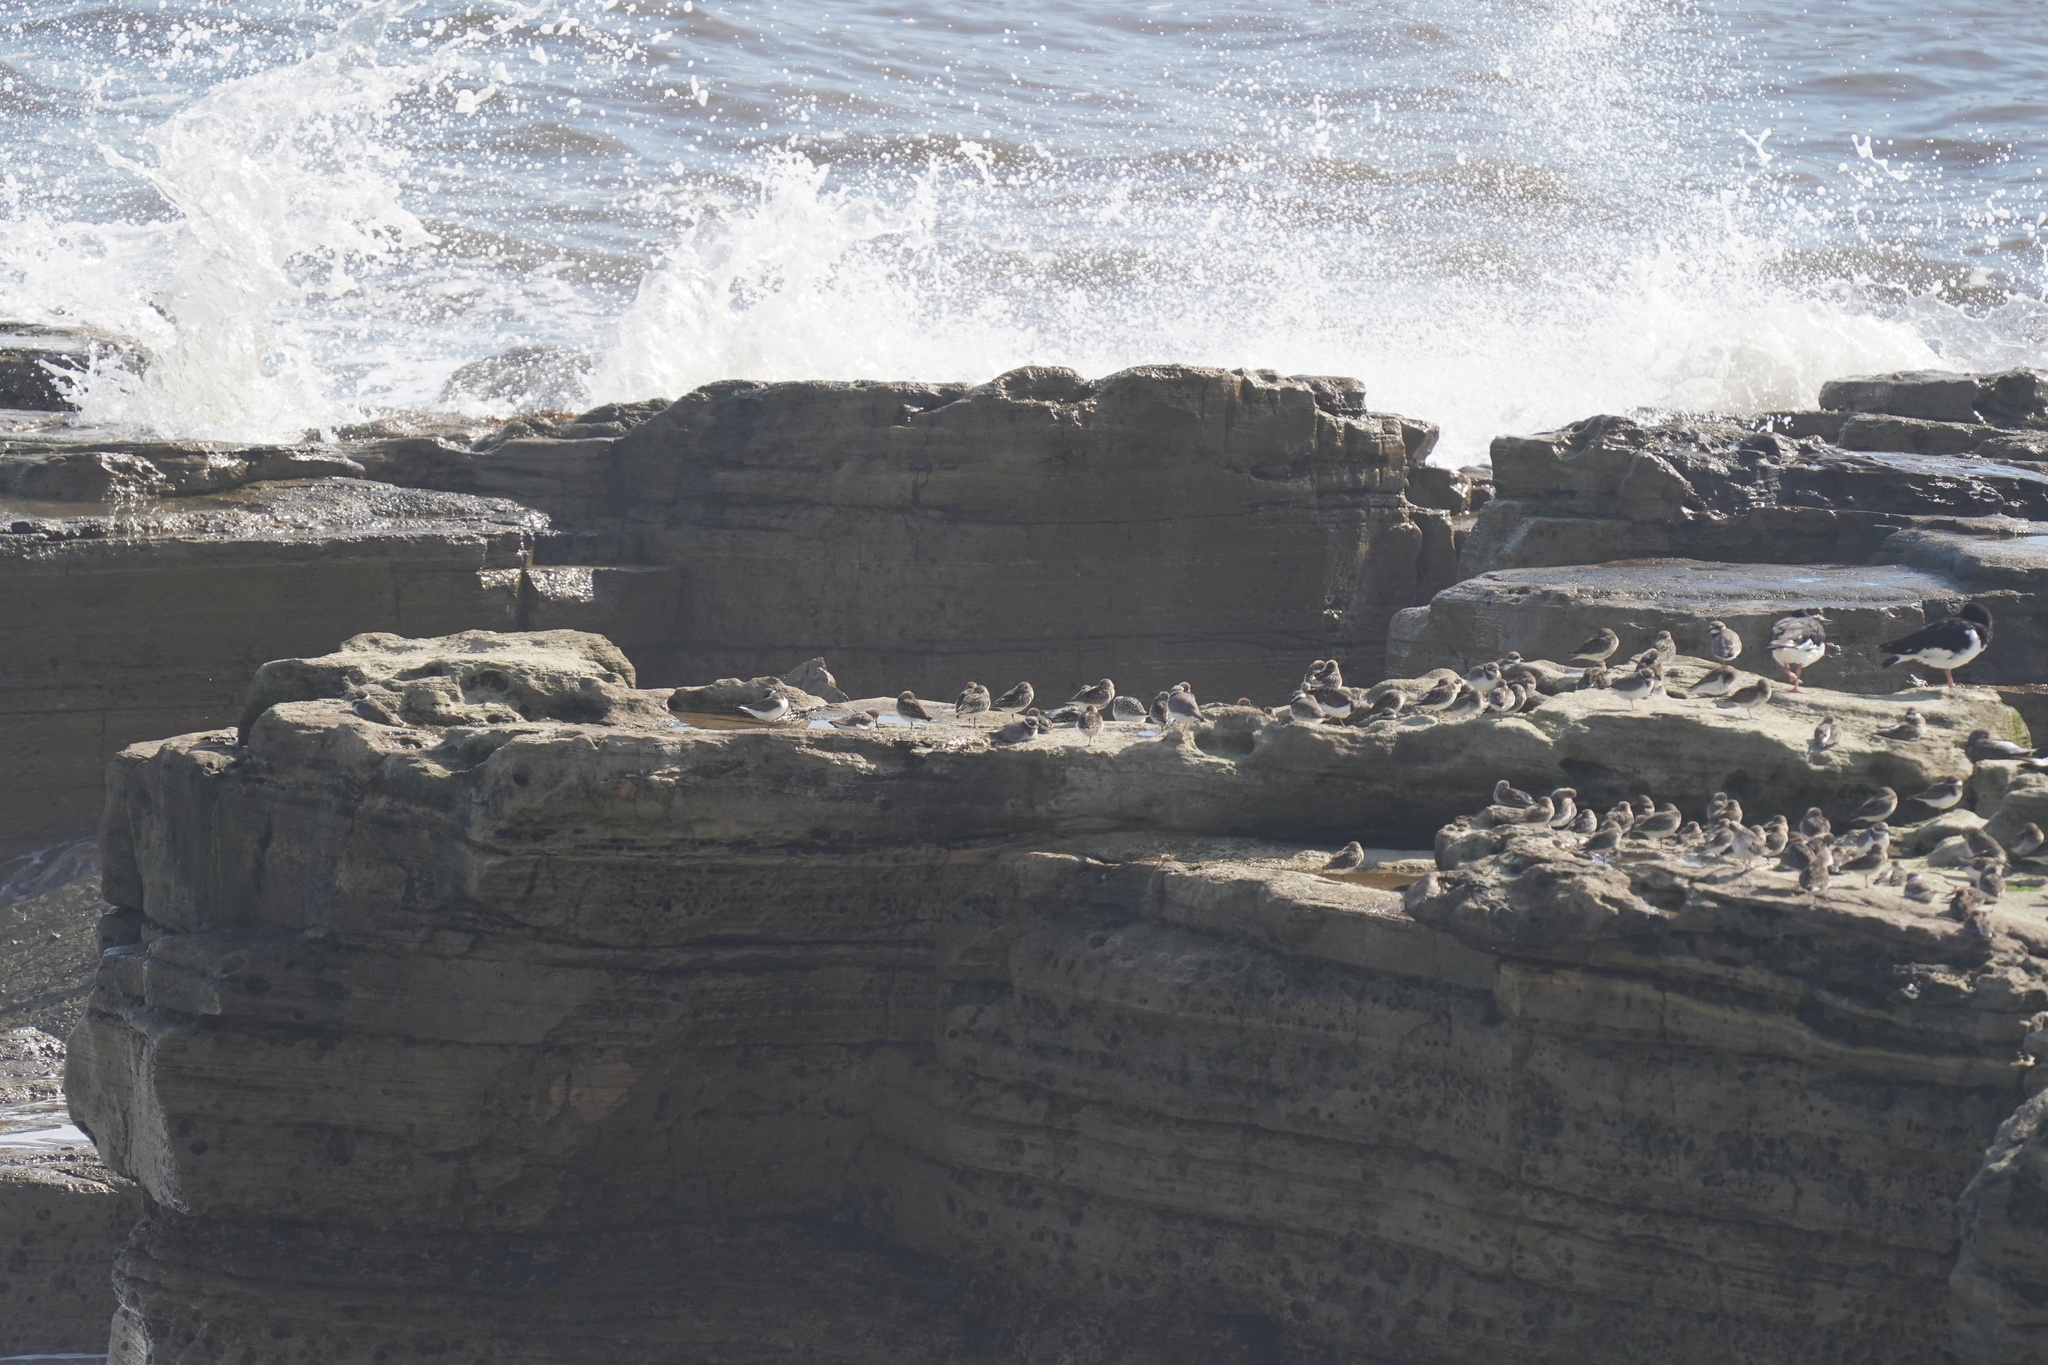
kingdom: Animalia
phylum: Chordata
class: Aves
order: Charadriiformes
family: Scolopacidae
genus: Calidris
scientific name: Calidris alpina
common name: Dunlin
